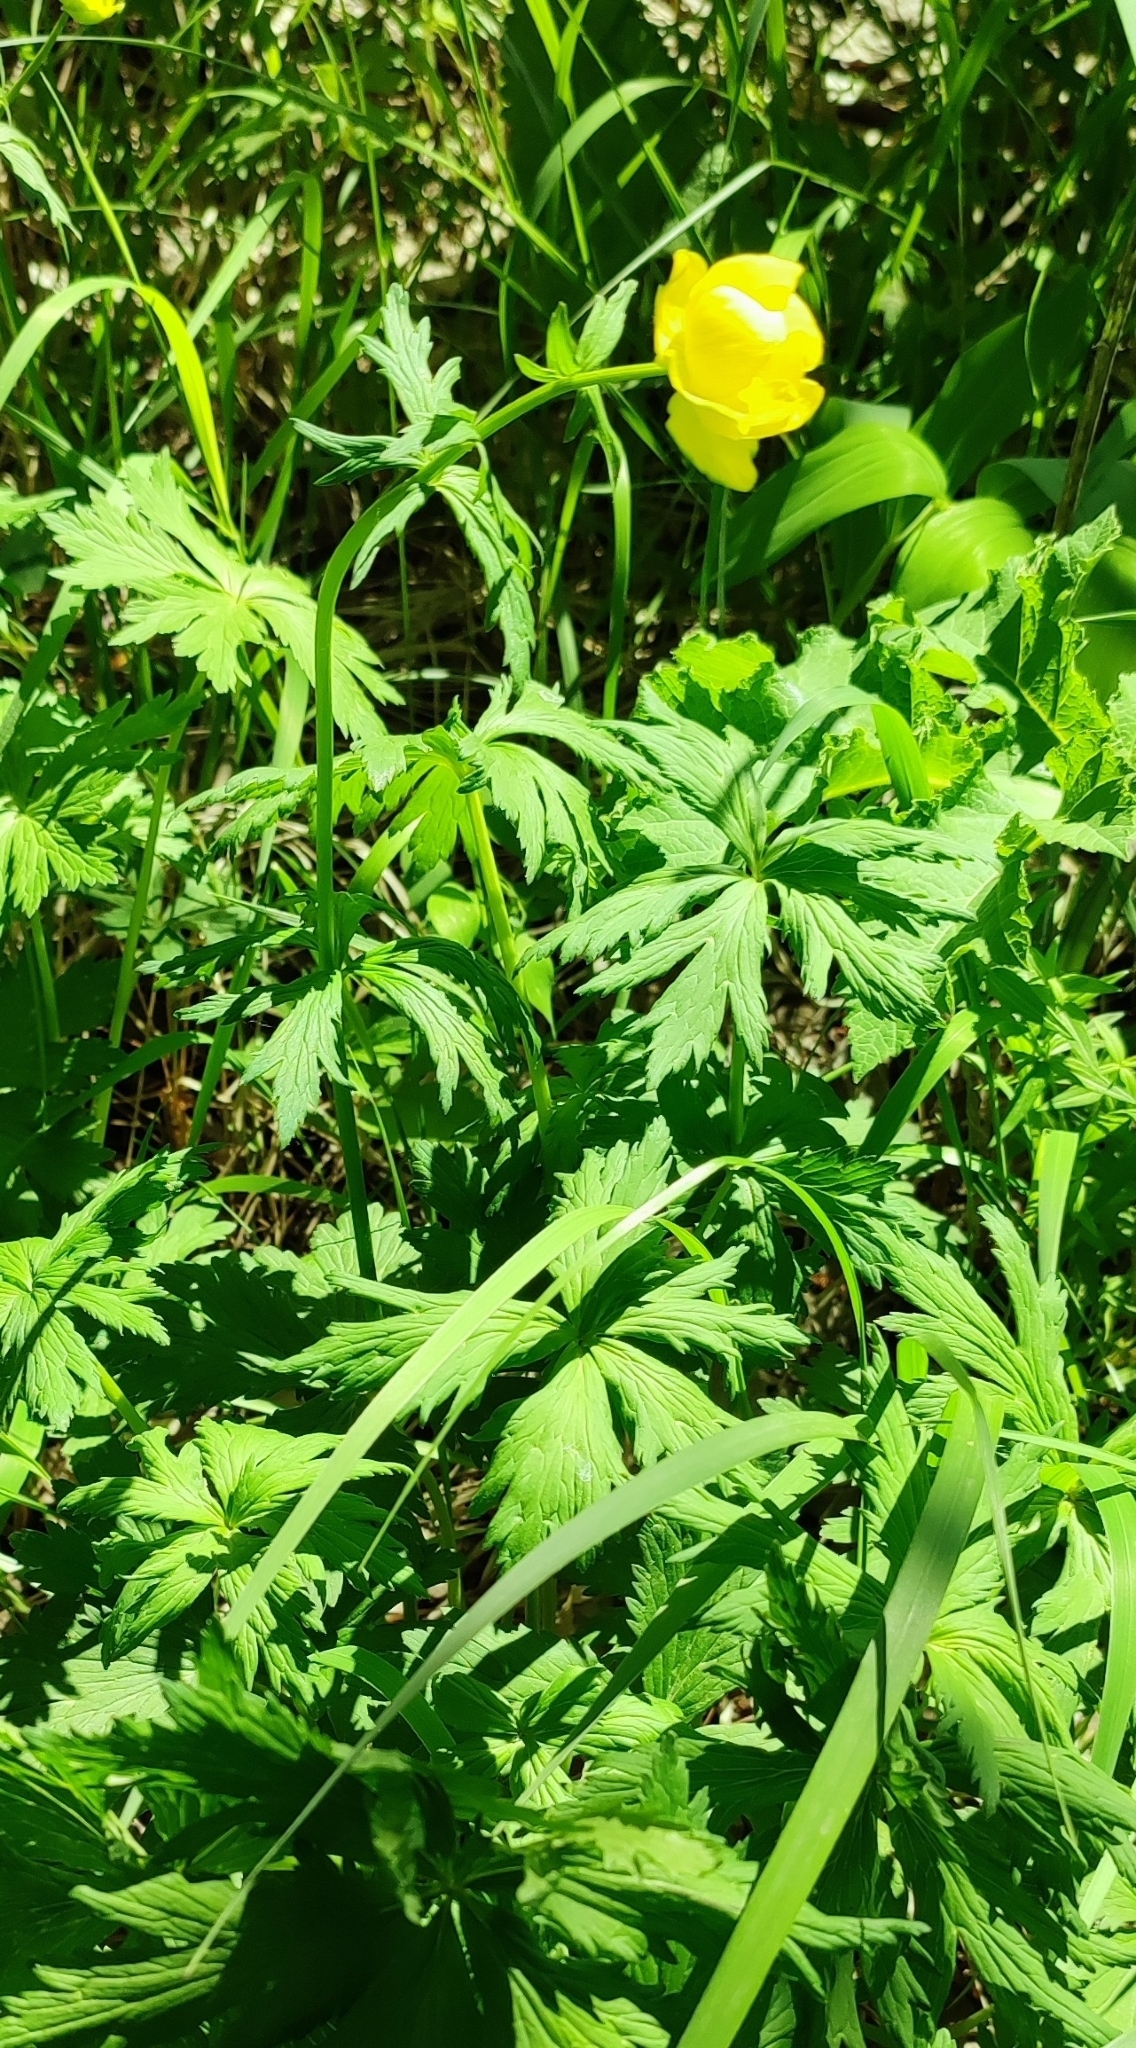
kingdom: Plantae
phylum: Tracheophyta
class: Magnoliopsida
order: Ranunculales
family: Ranunculaceae
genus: Trollius
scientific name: Trollius europaeus
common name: European globeflower
